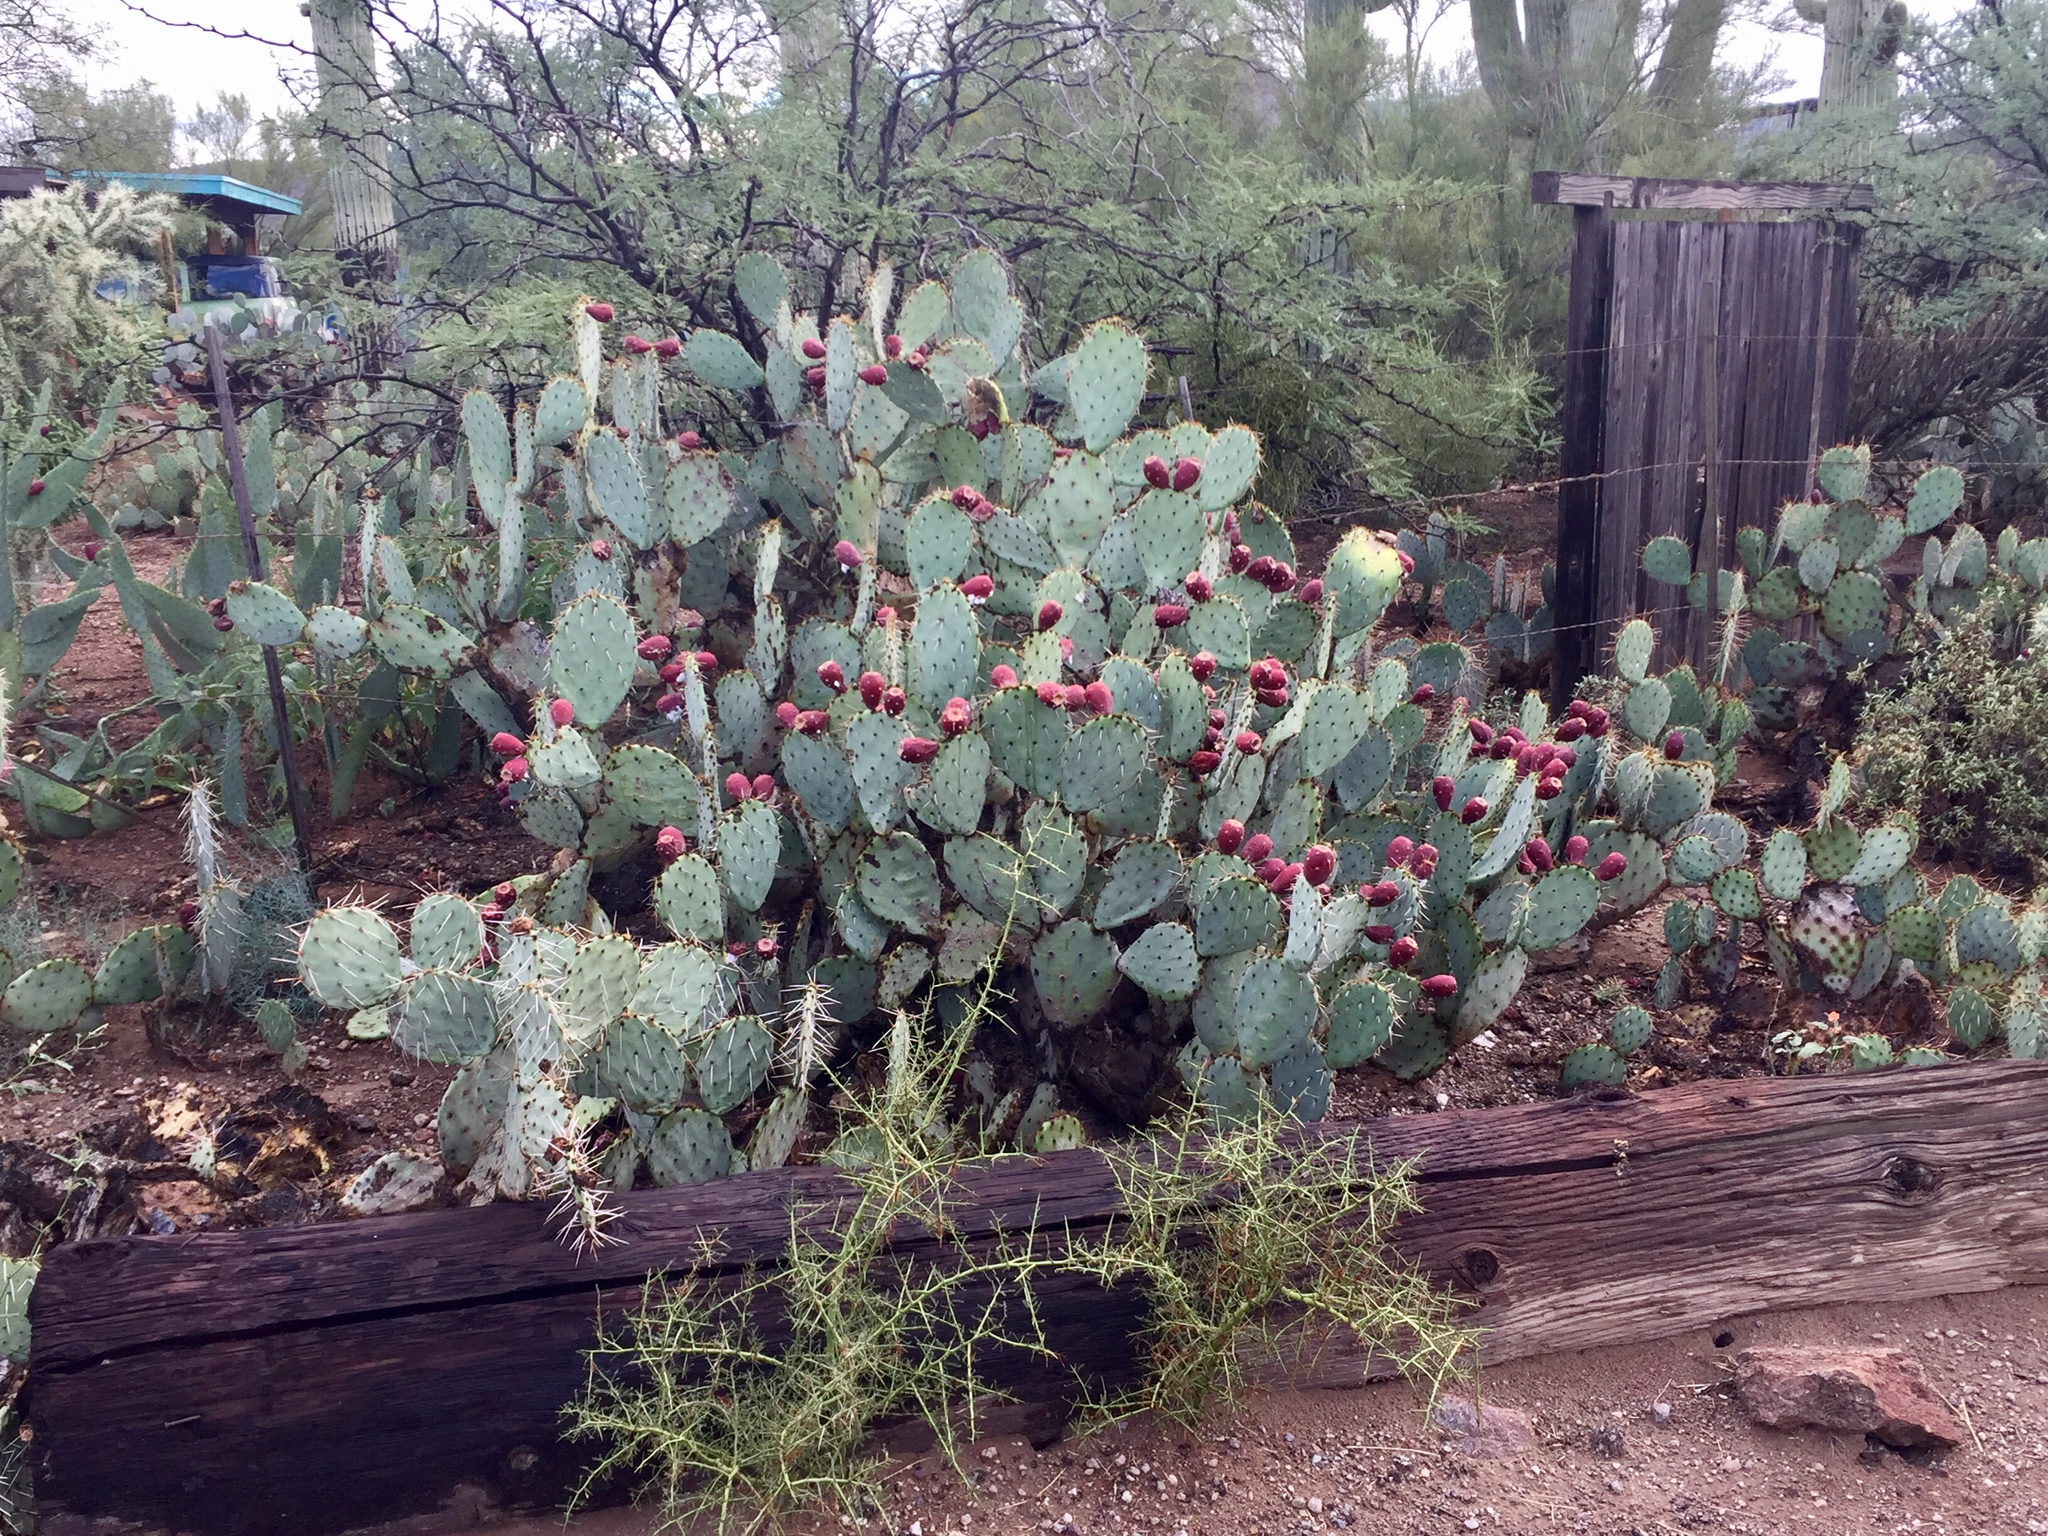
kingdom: Plantae
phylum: Tracheophyta
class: Magnoliopsida
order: Caryophyllales
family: Cactaceae
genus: Opuntia
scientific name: Opuntia engelmannii
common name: Cactus-apple
